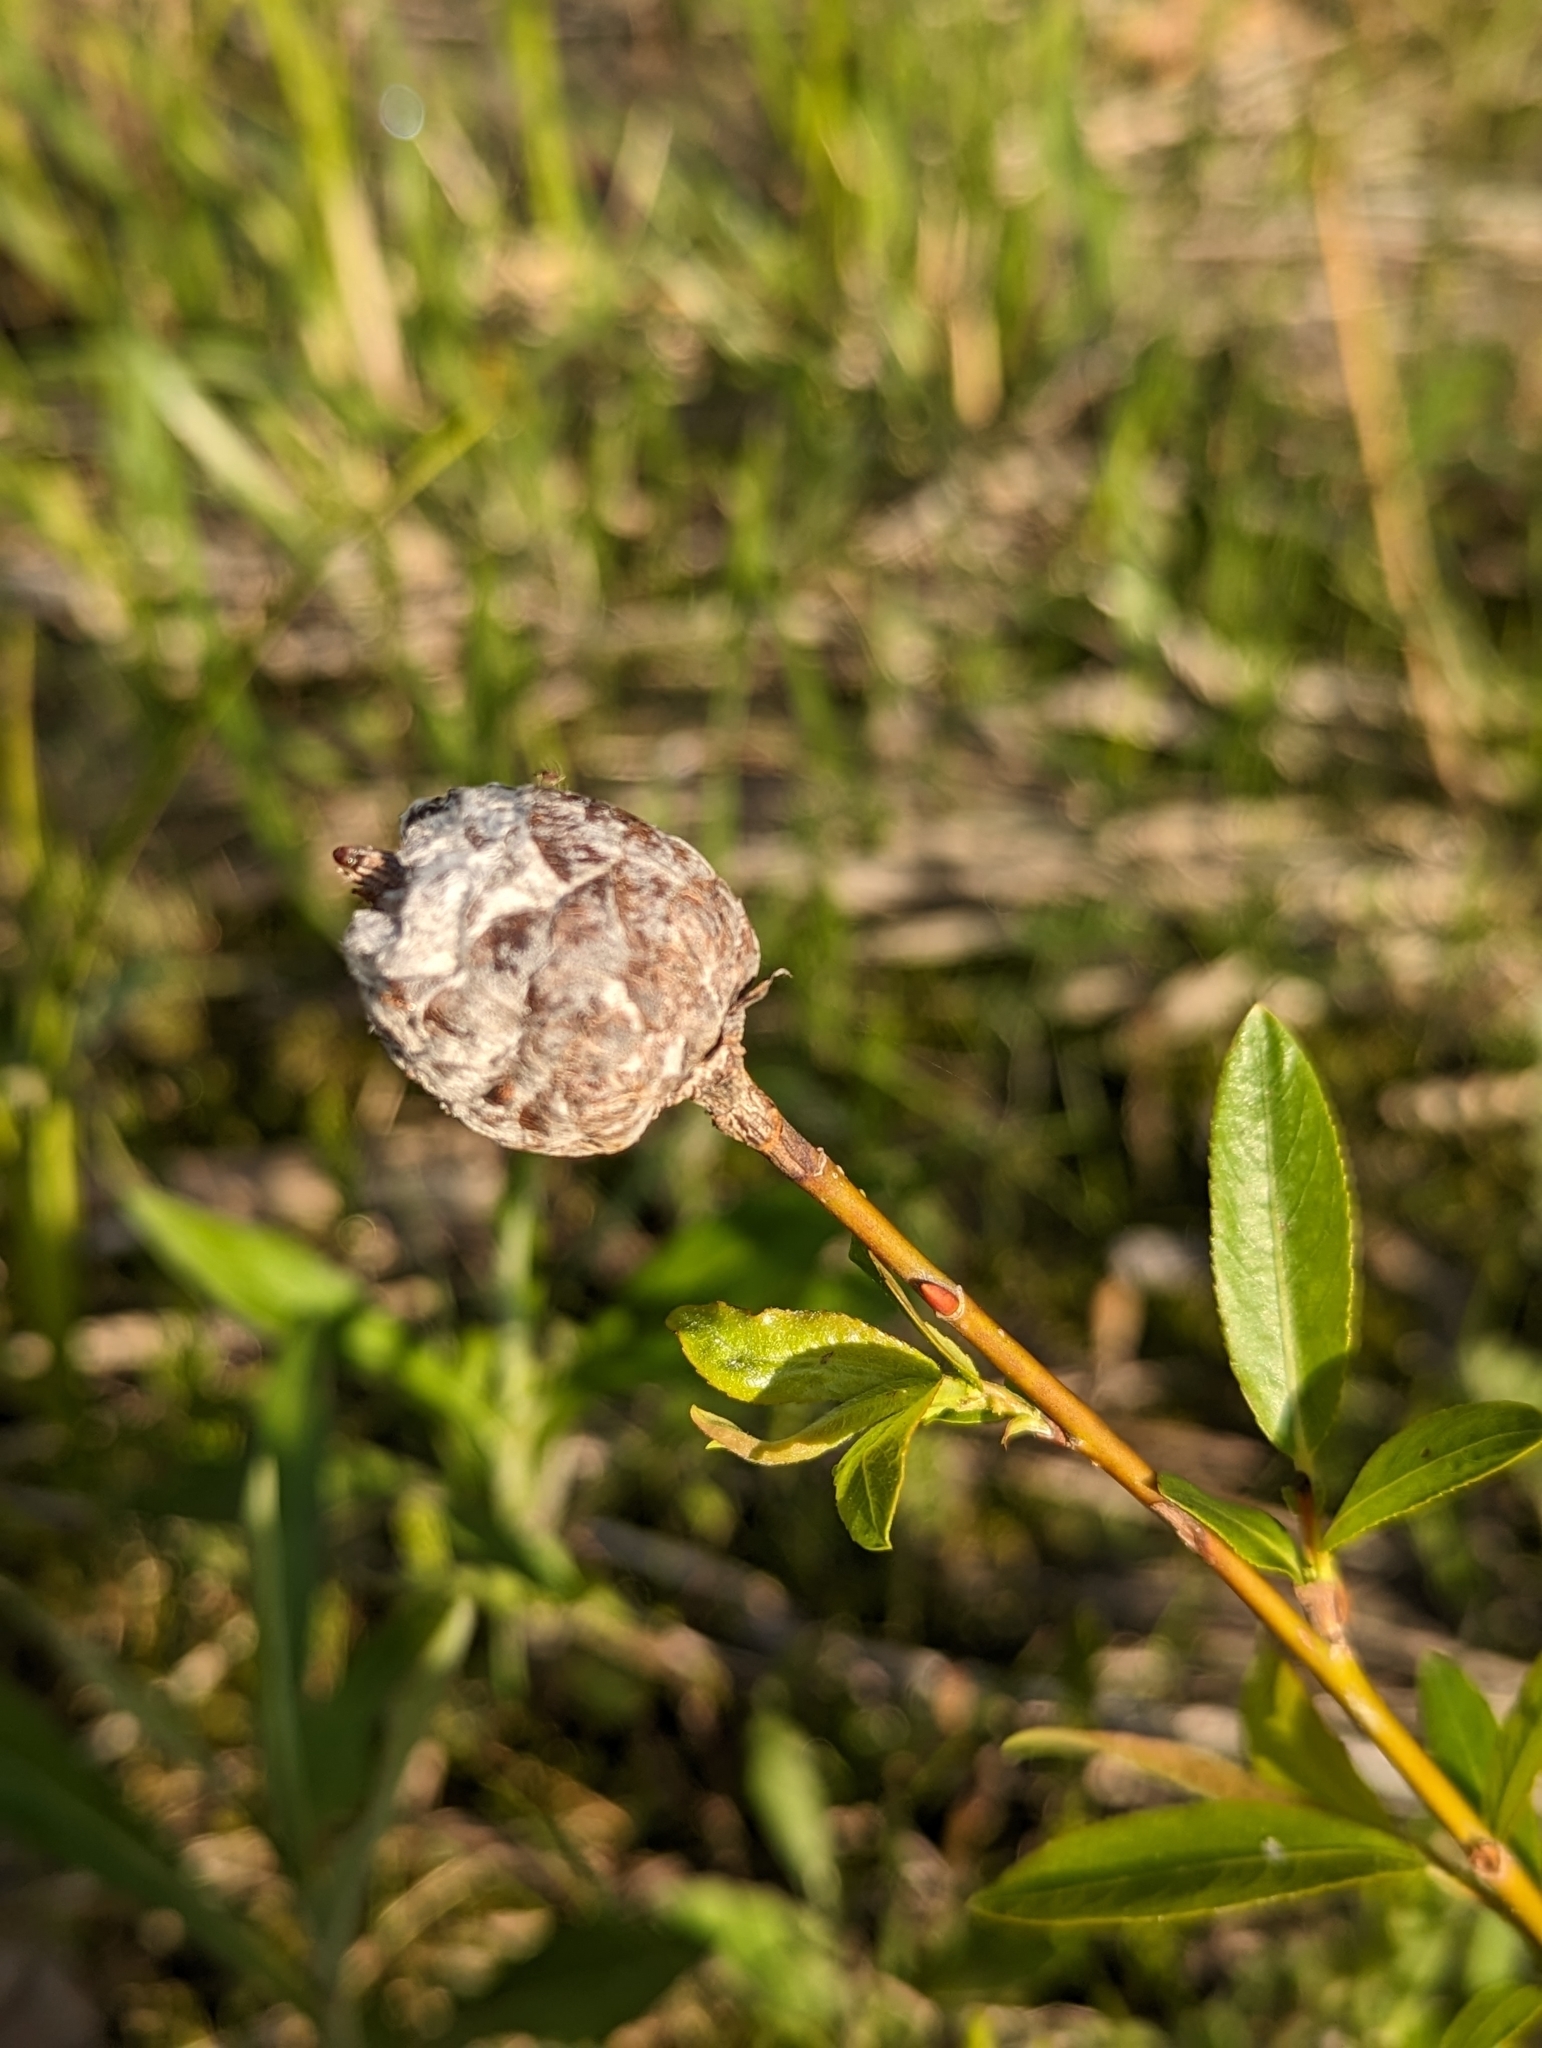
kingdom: Animalia
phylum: Arthropoda
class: Insecta
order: Diptera
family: Cecidomyiidae
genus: Rabdophaga
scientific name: Rabdophaga strobiloides
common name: Willow pinecone gall midge
